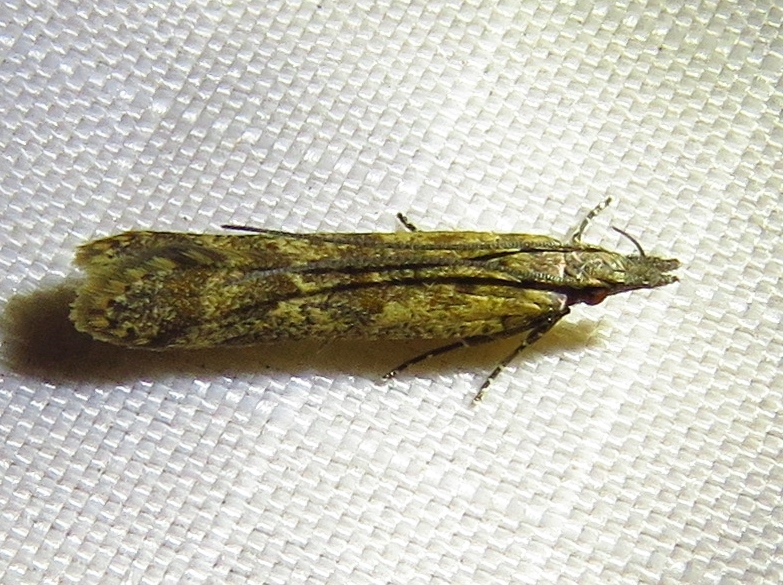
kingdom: Animalia
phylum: Arthropoda
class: Insecta
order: Lepidoptera
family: Gelechiidae
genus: Dichomeris
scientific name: Dichomeris ligulella
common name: Moth
